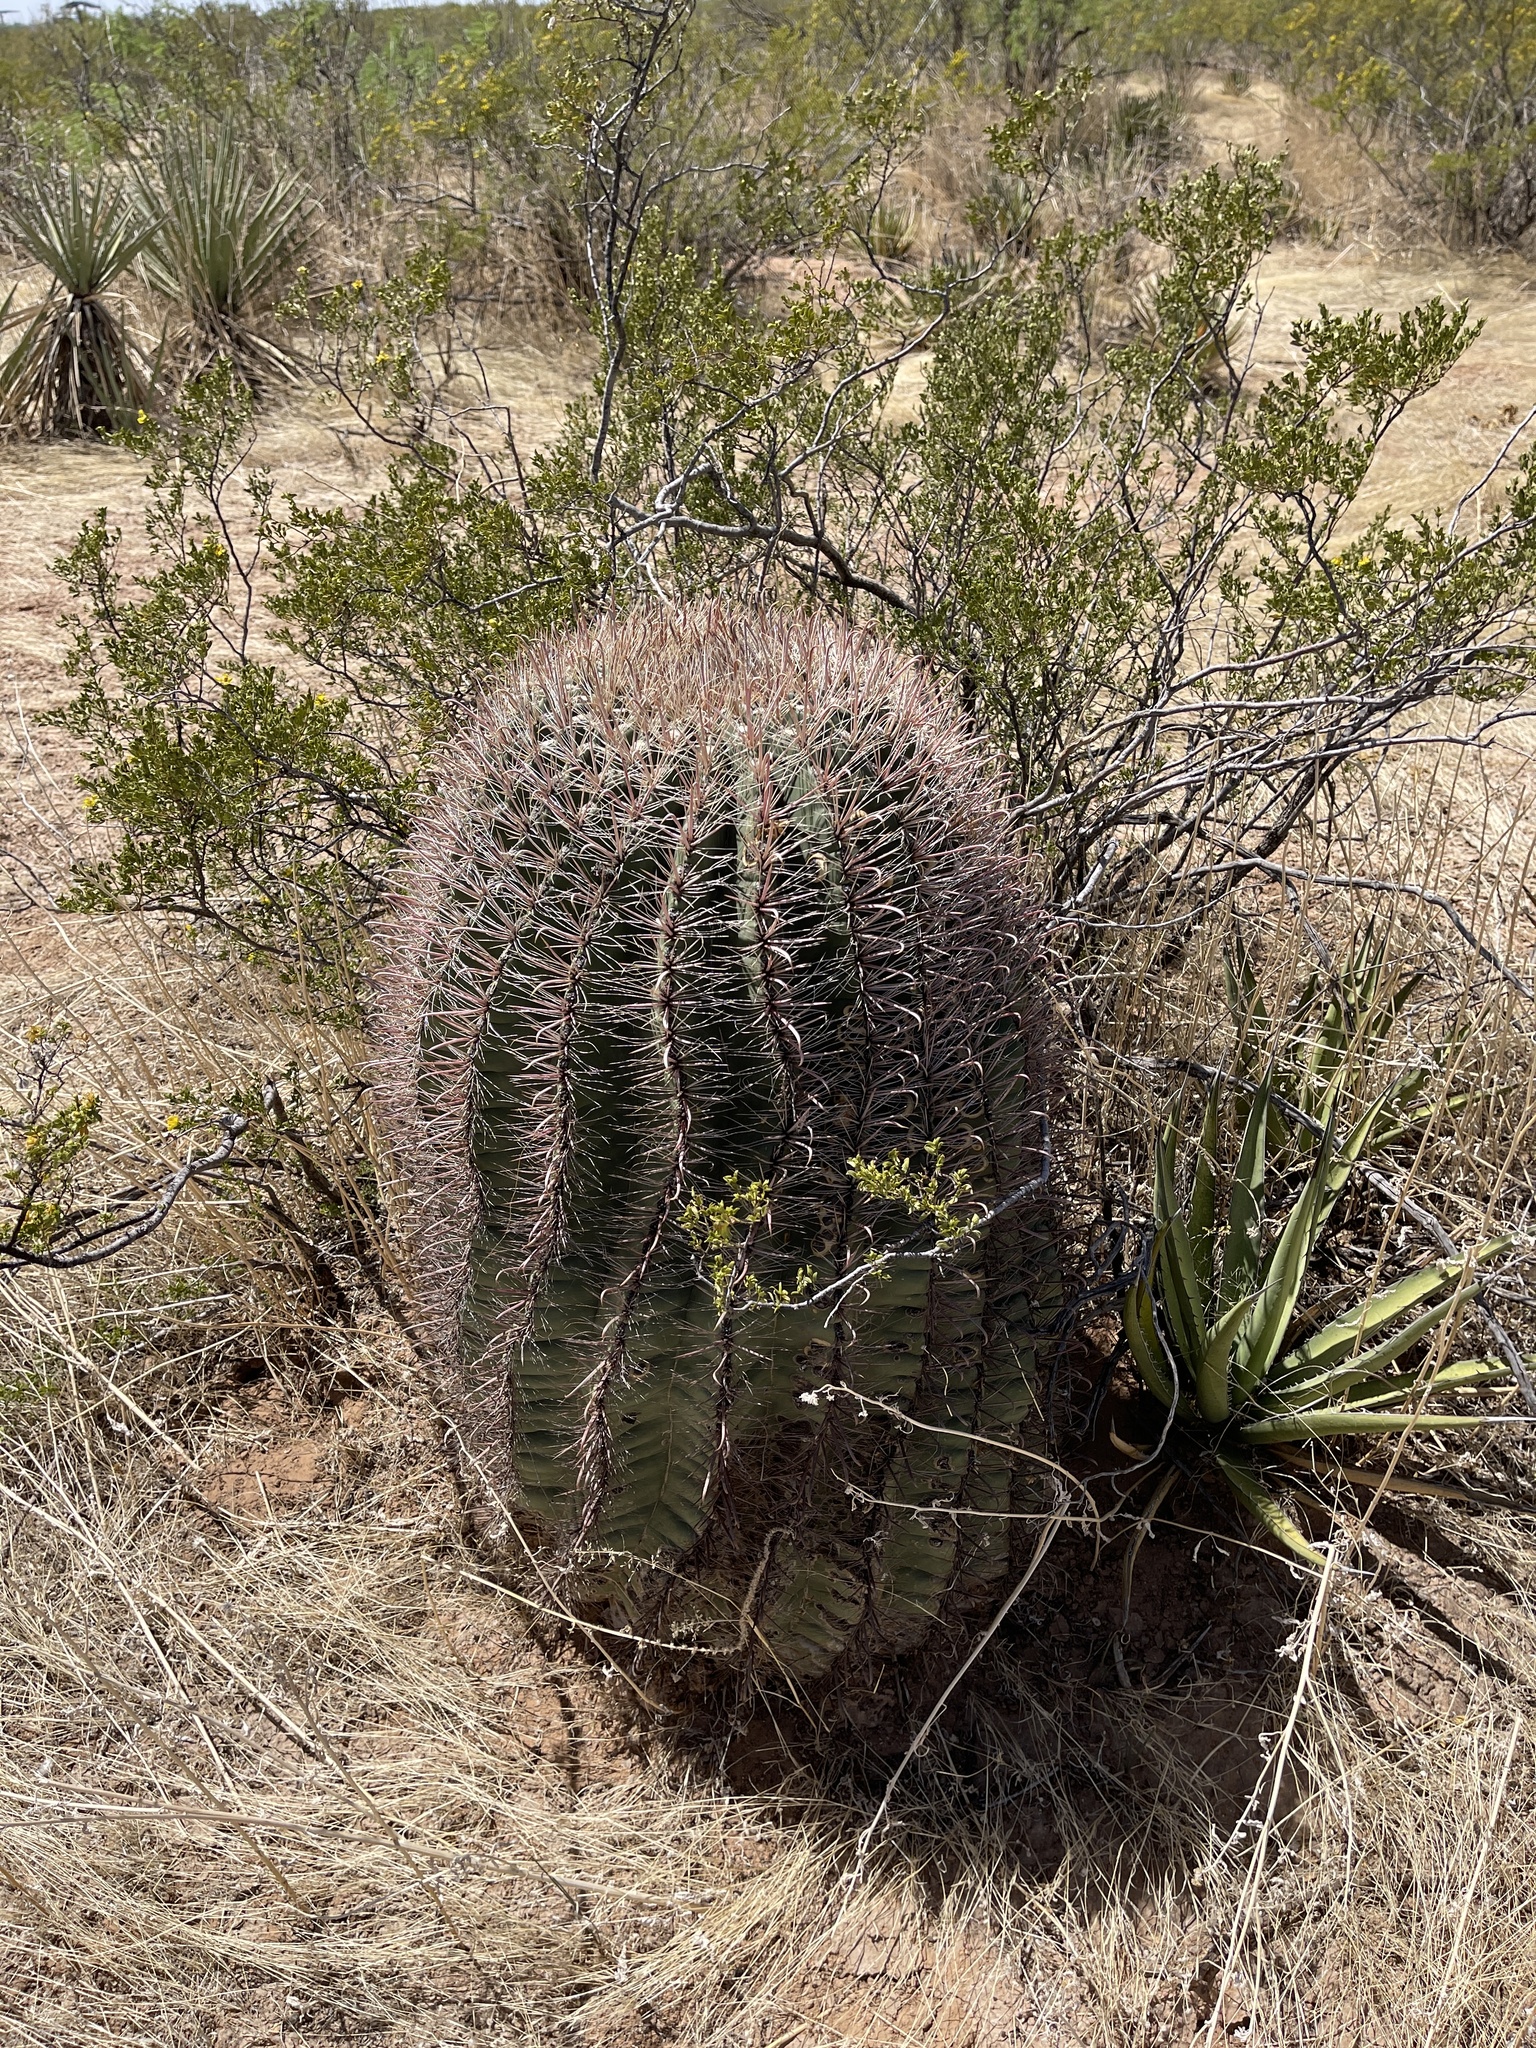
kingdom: Plantae
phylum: Tracheophyta
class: Magnoliopsida
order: Caryophyllales
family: Cactaceae
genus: Ferocactus
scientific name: Ferocactus wislizeni
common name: Candy barrel cactus
